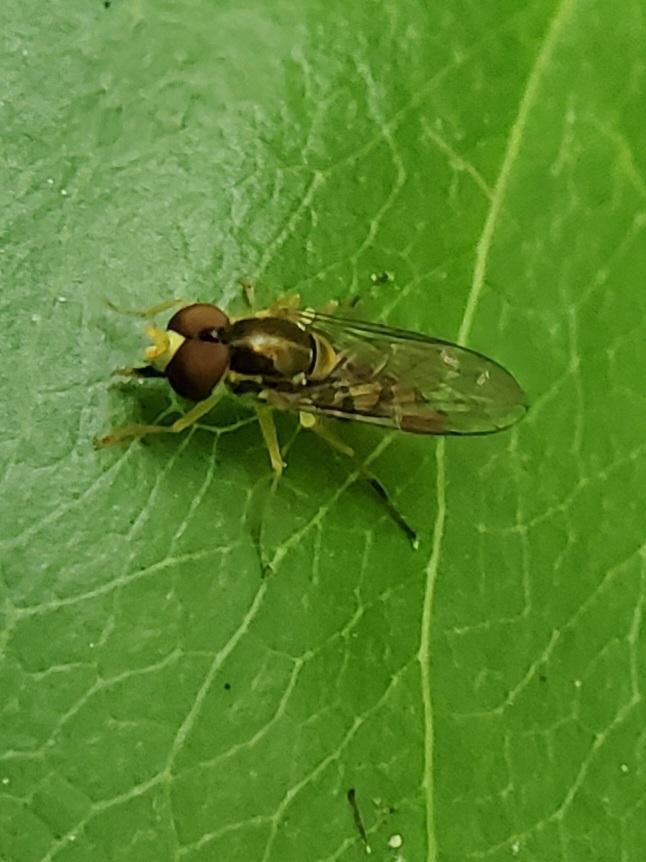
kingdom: Animalia
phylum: Arthropoda
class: Insecta
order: Diptera
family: Syrphidae
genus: Toxomerus
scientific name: Toxomerus marginatus
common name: Syrphid fly
